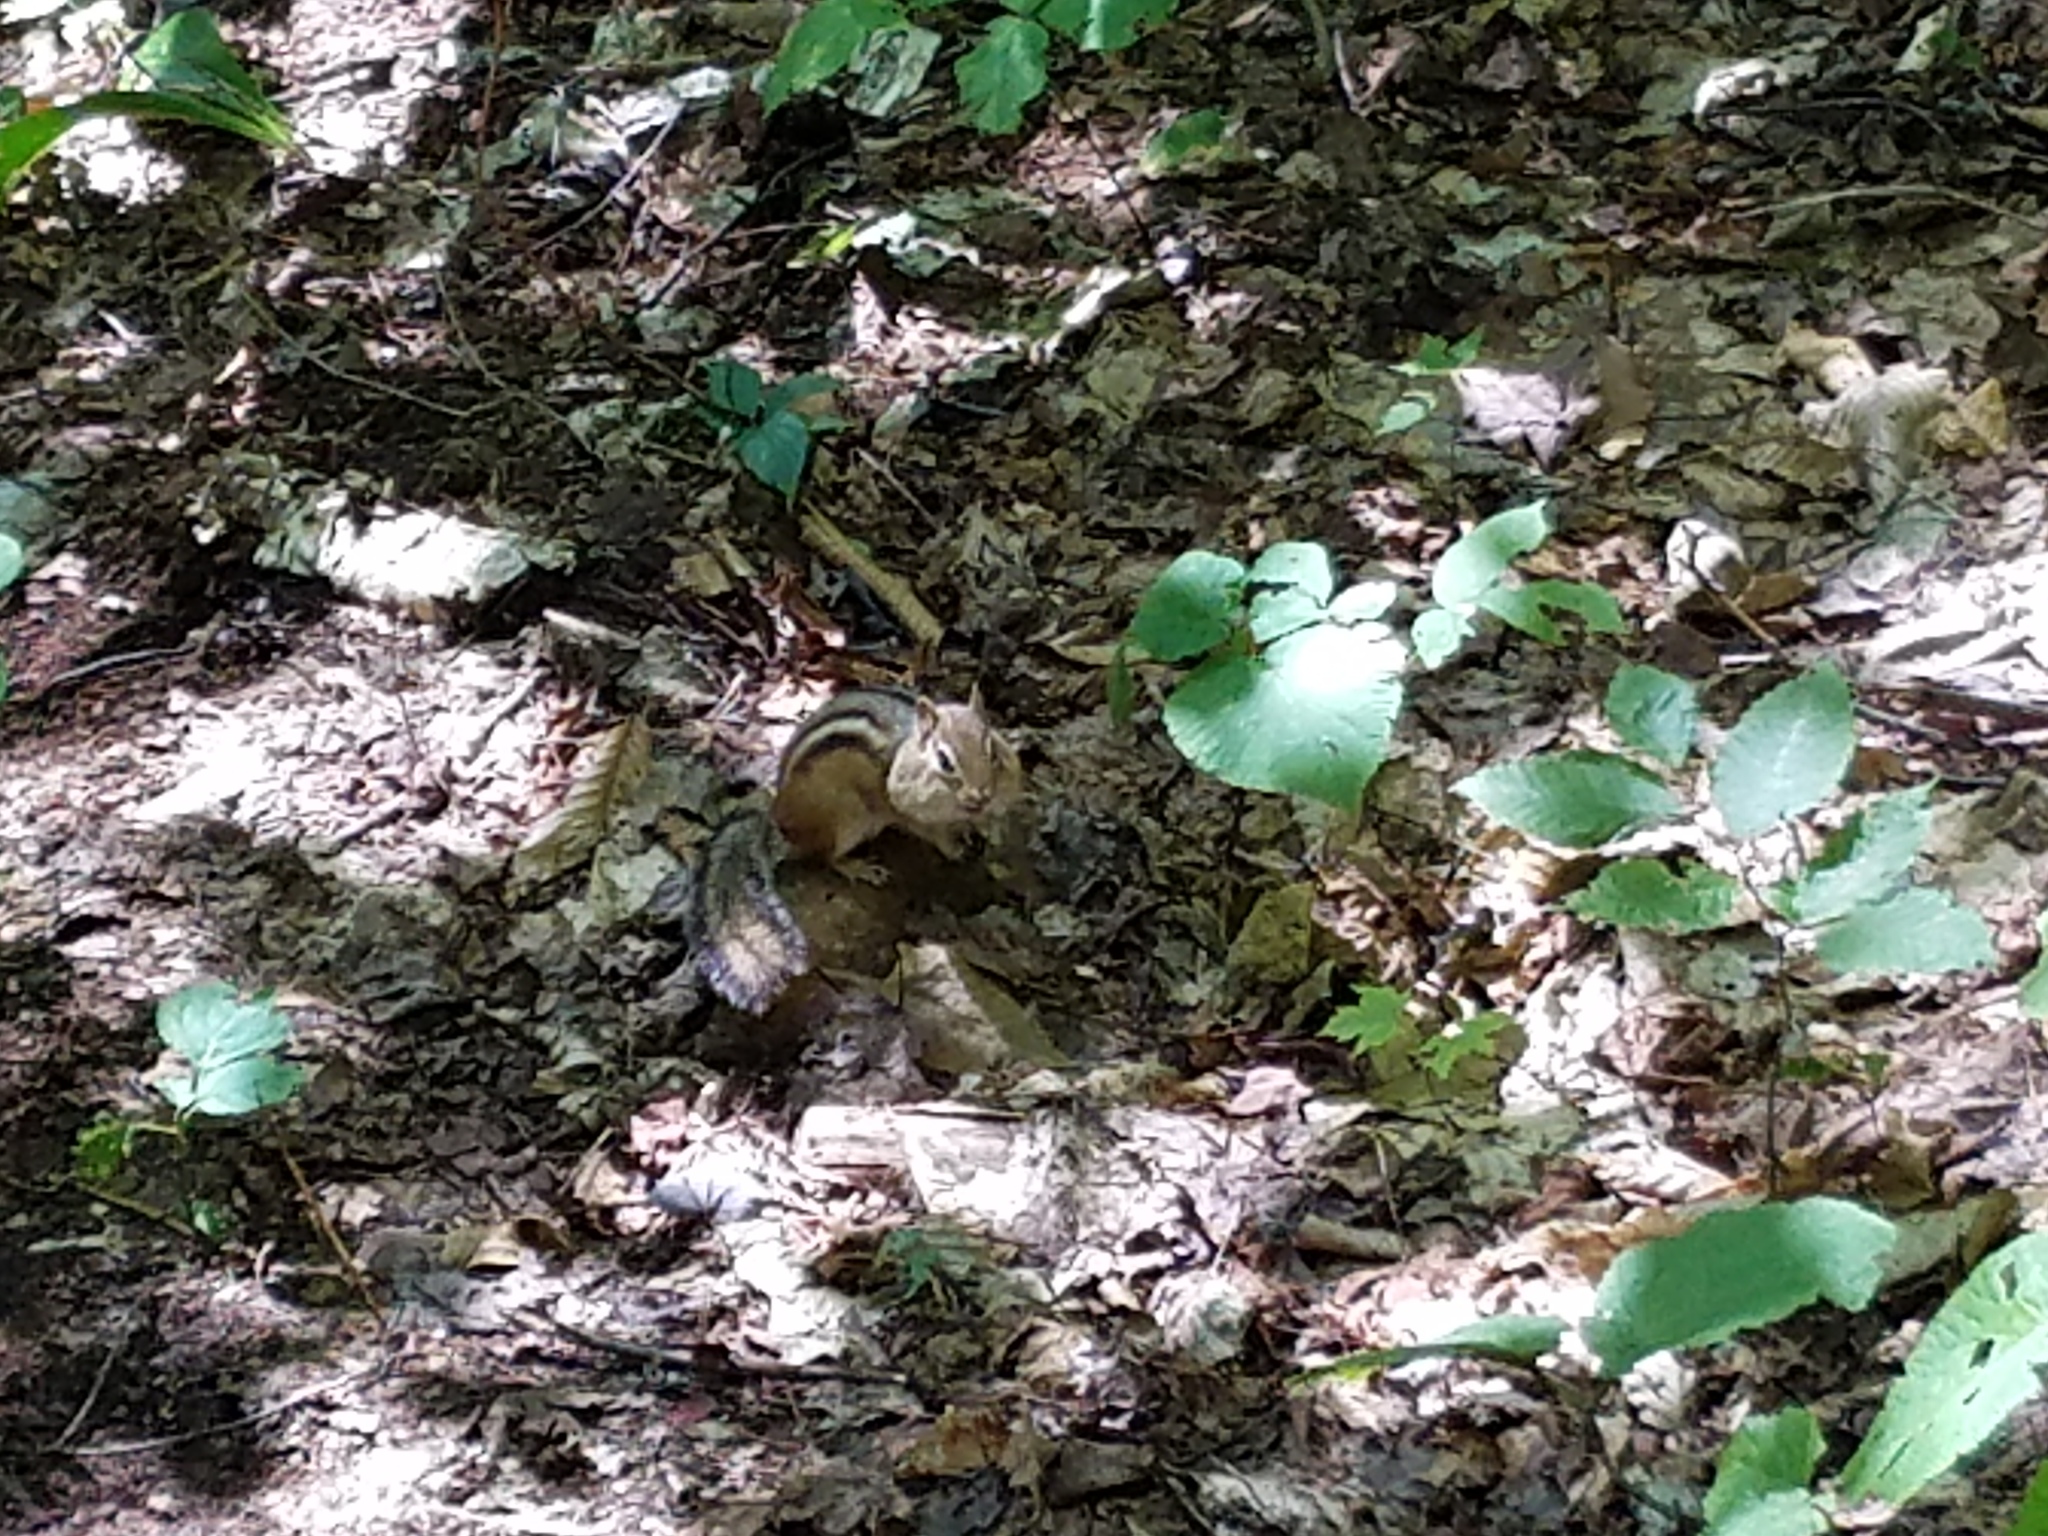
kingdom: Animalia
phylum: Chordata
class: Mammalia
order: Rodentia
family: Sciuridae
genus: Tamias
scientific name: Tamias striatus
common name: Eastern chipmunk
